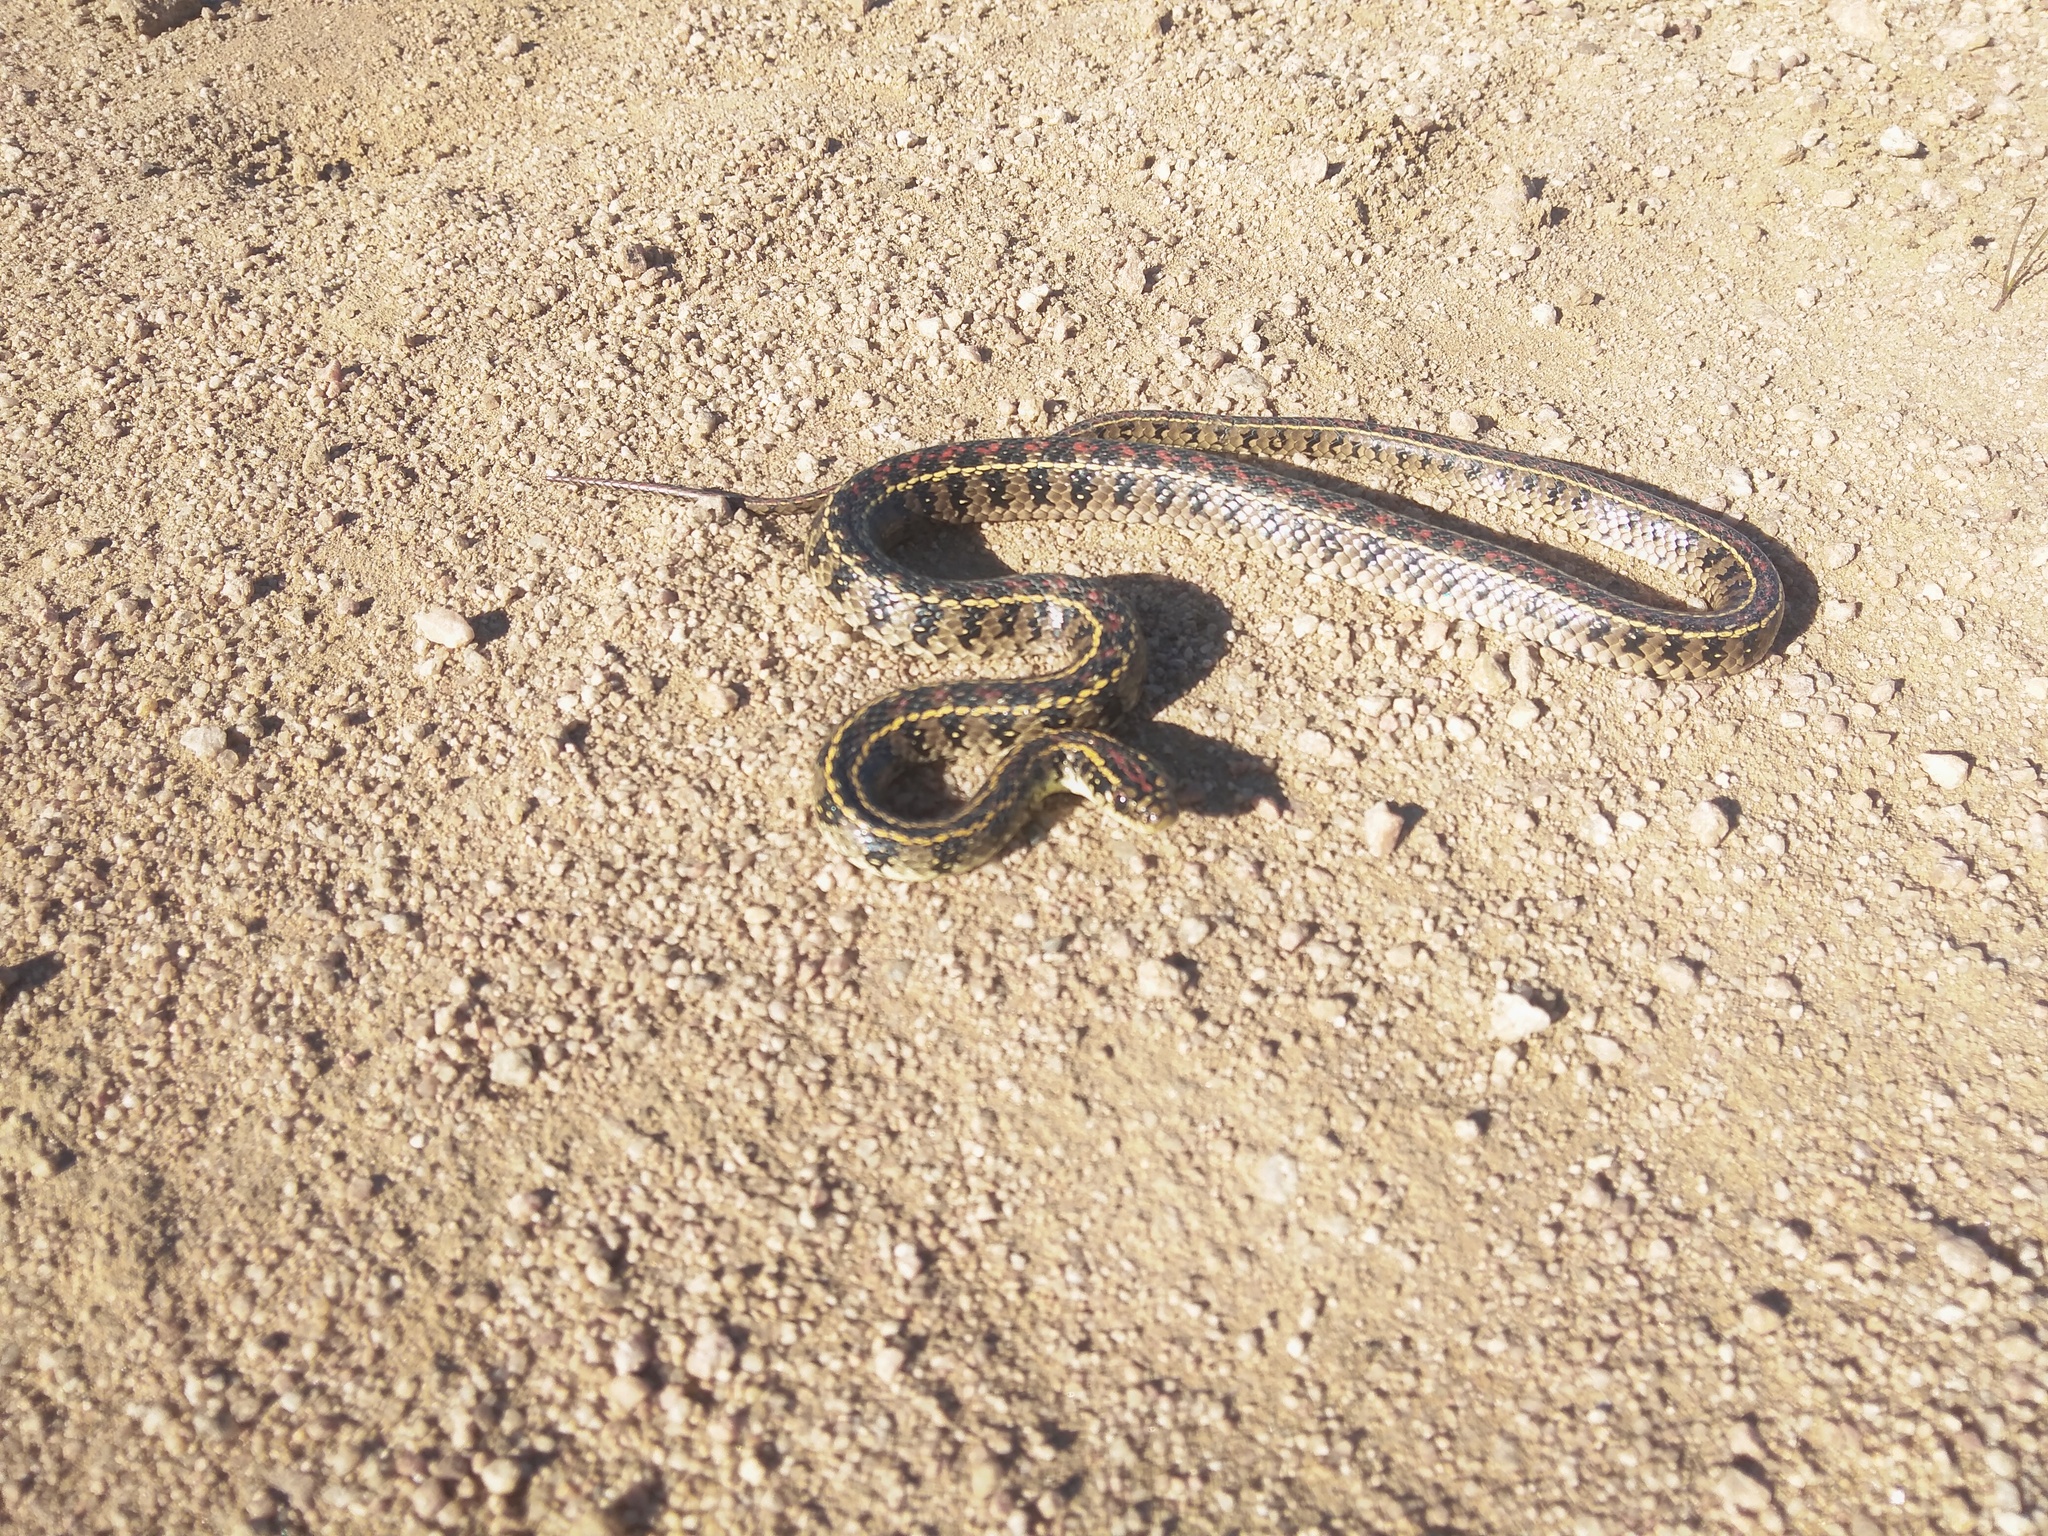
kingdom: Animalia
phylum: Chordata
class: Squamata
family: Colubridae
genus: Lygophis
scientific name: Lygophis anomalus
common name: English common name not available
